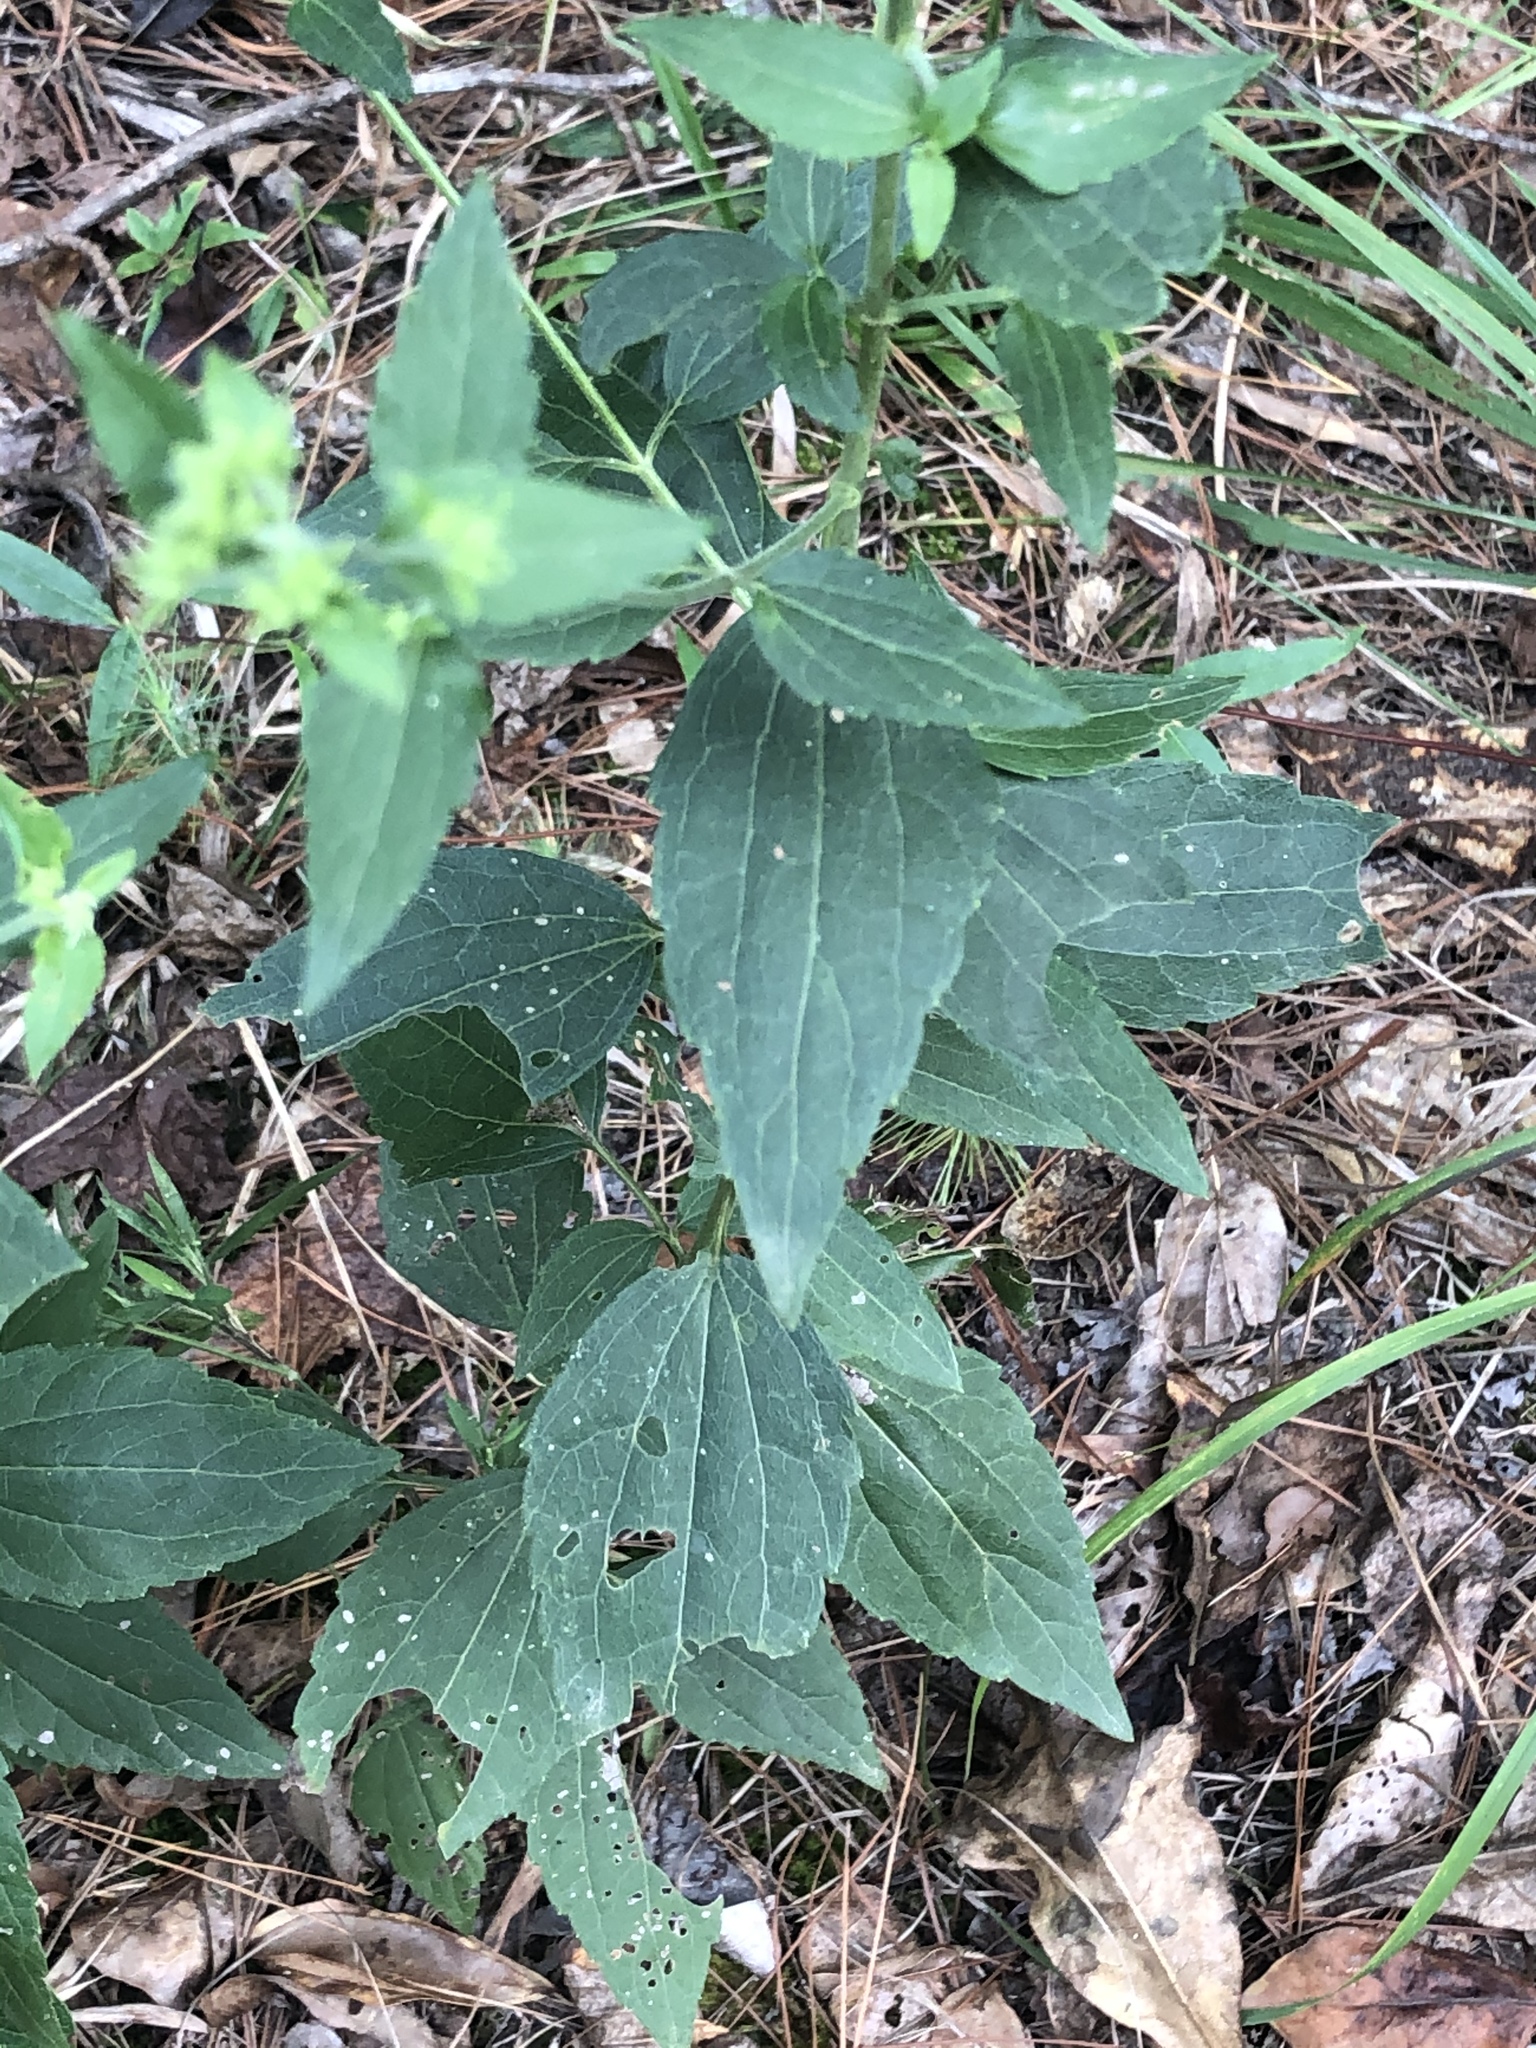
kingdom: Plantae
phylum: Tracheophyta
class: Magnoliopsida
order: Asterales
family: Asteraceae
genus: Ageratina
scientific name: Ageratina aromatica
